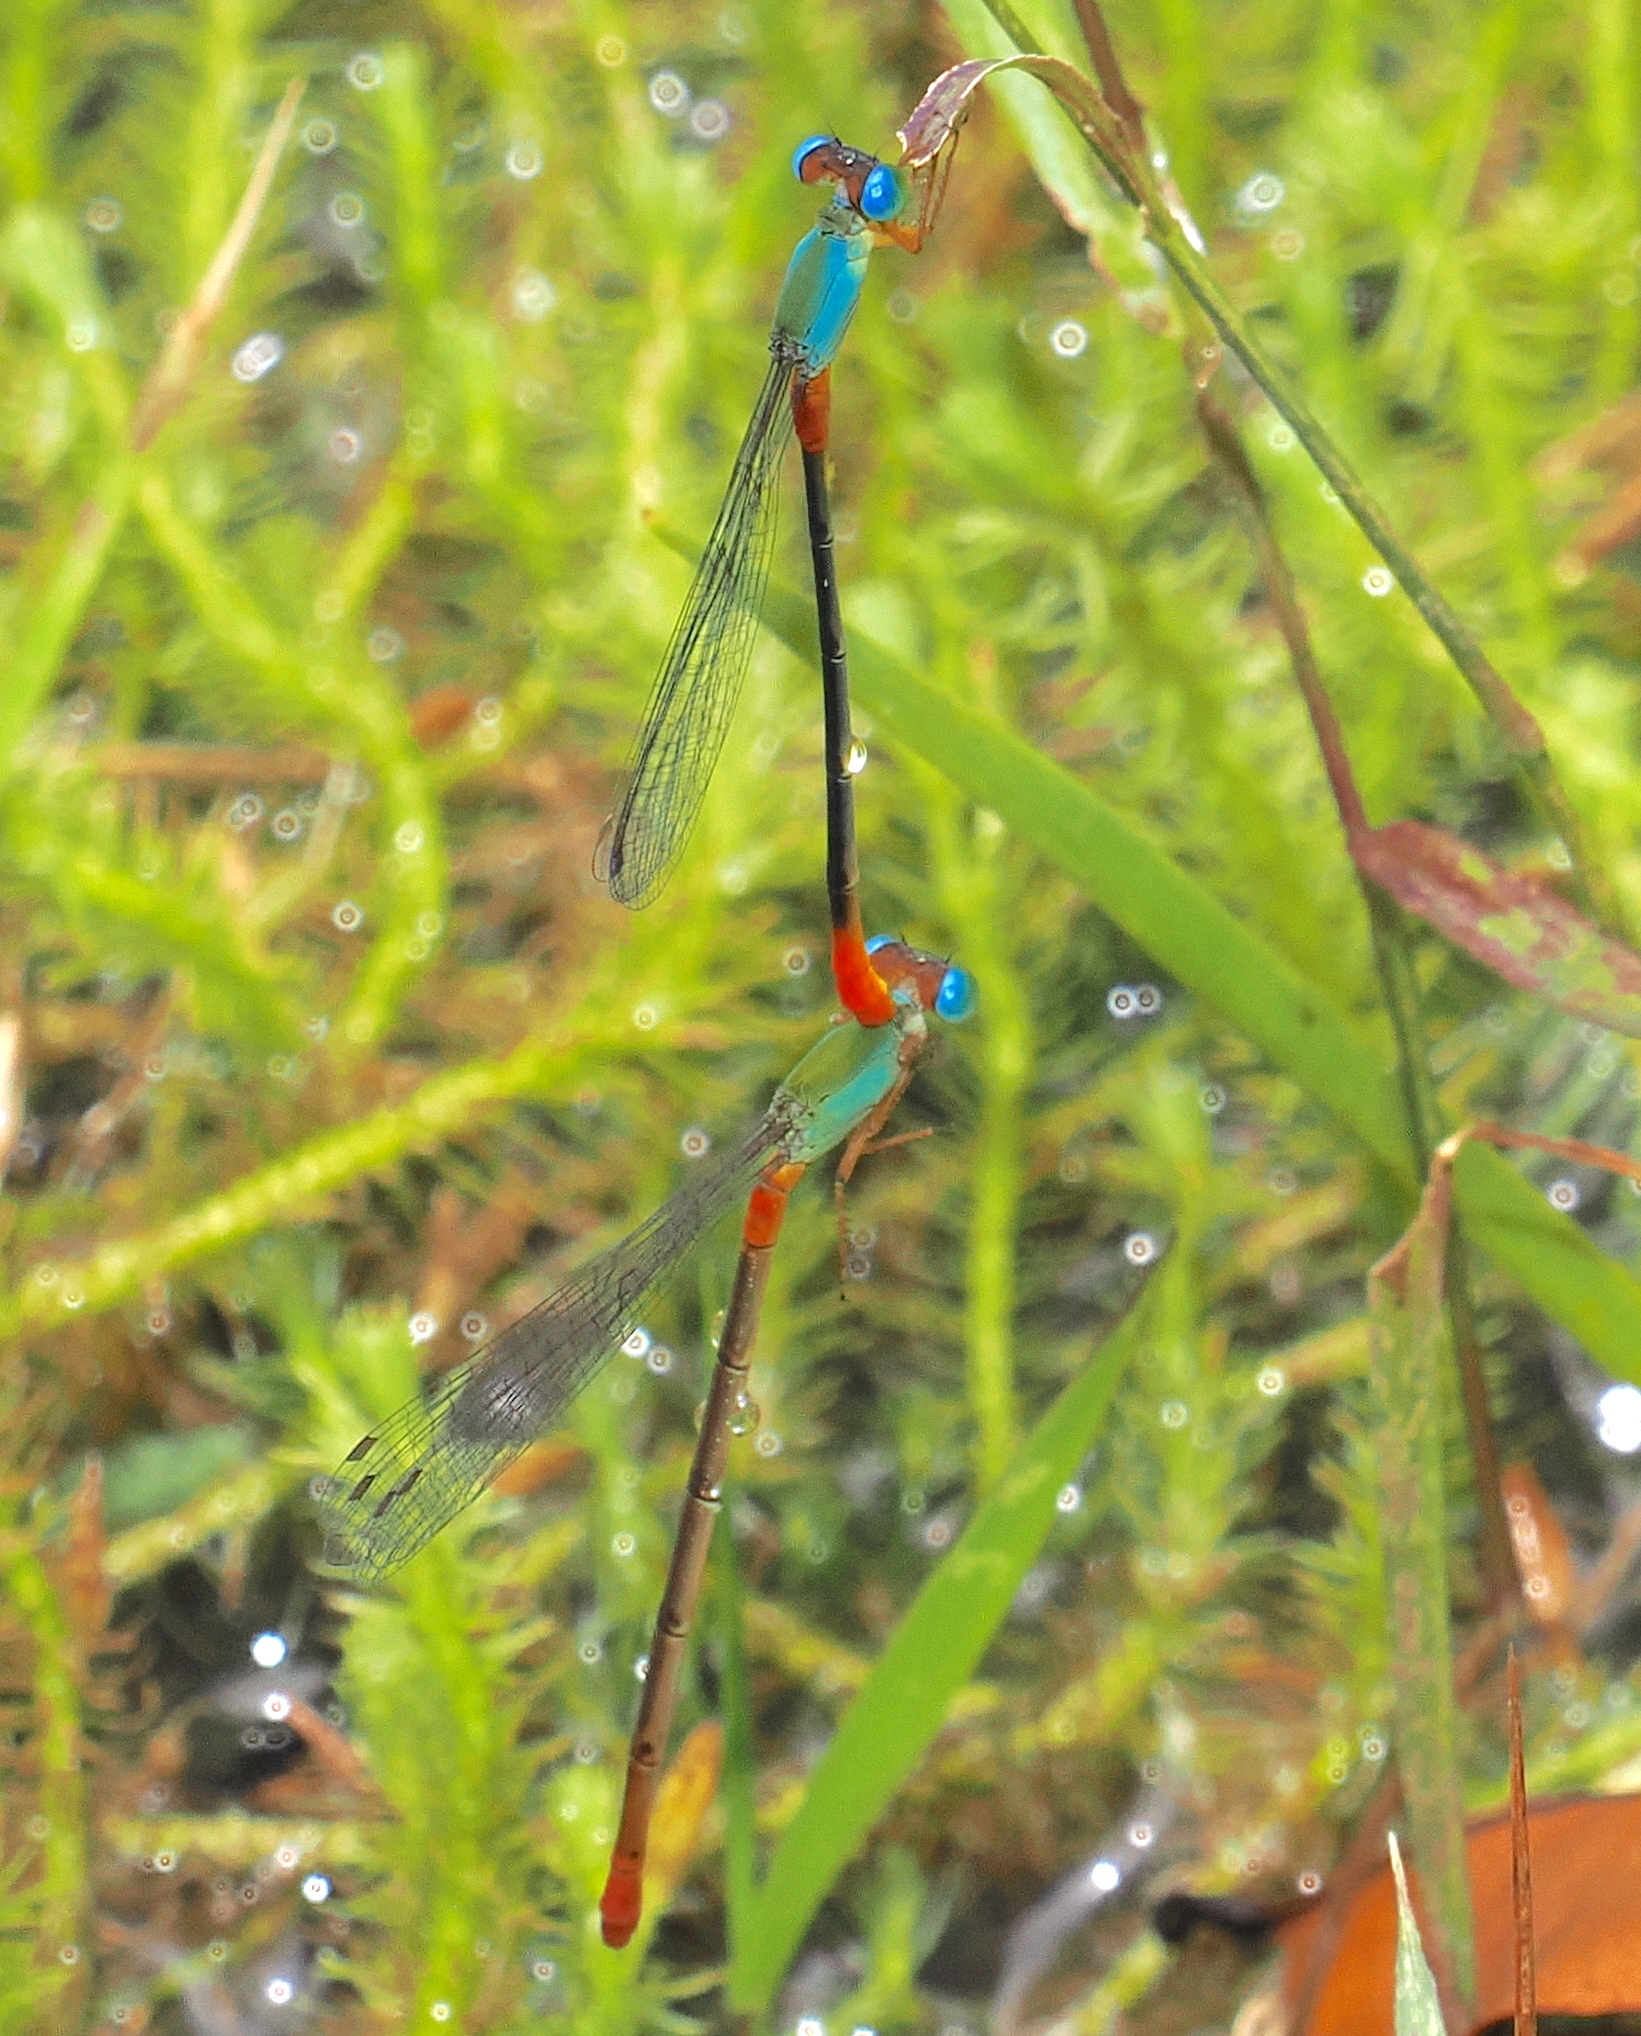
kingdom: Animalia
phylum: Arthropoda
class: Insecta
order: Odonata
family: Coenagrionidae
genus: Ceriagrion
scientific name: Ceriagrion cerinorubellum
